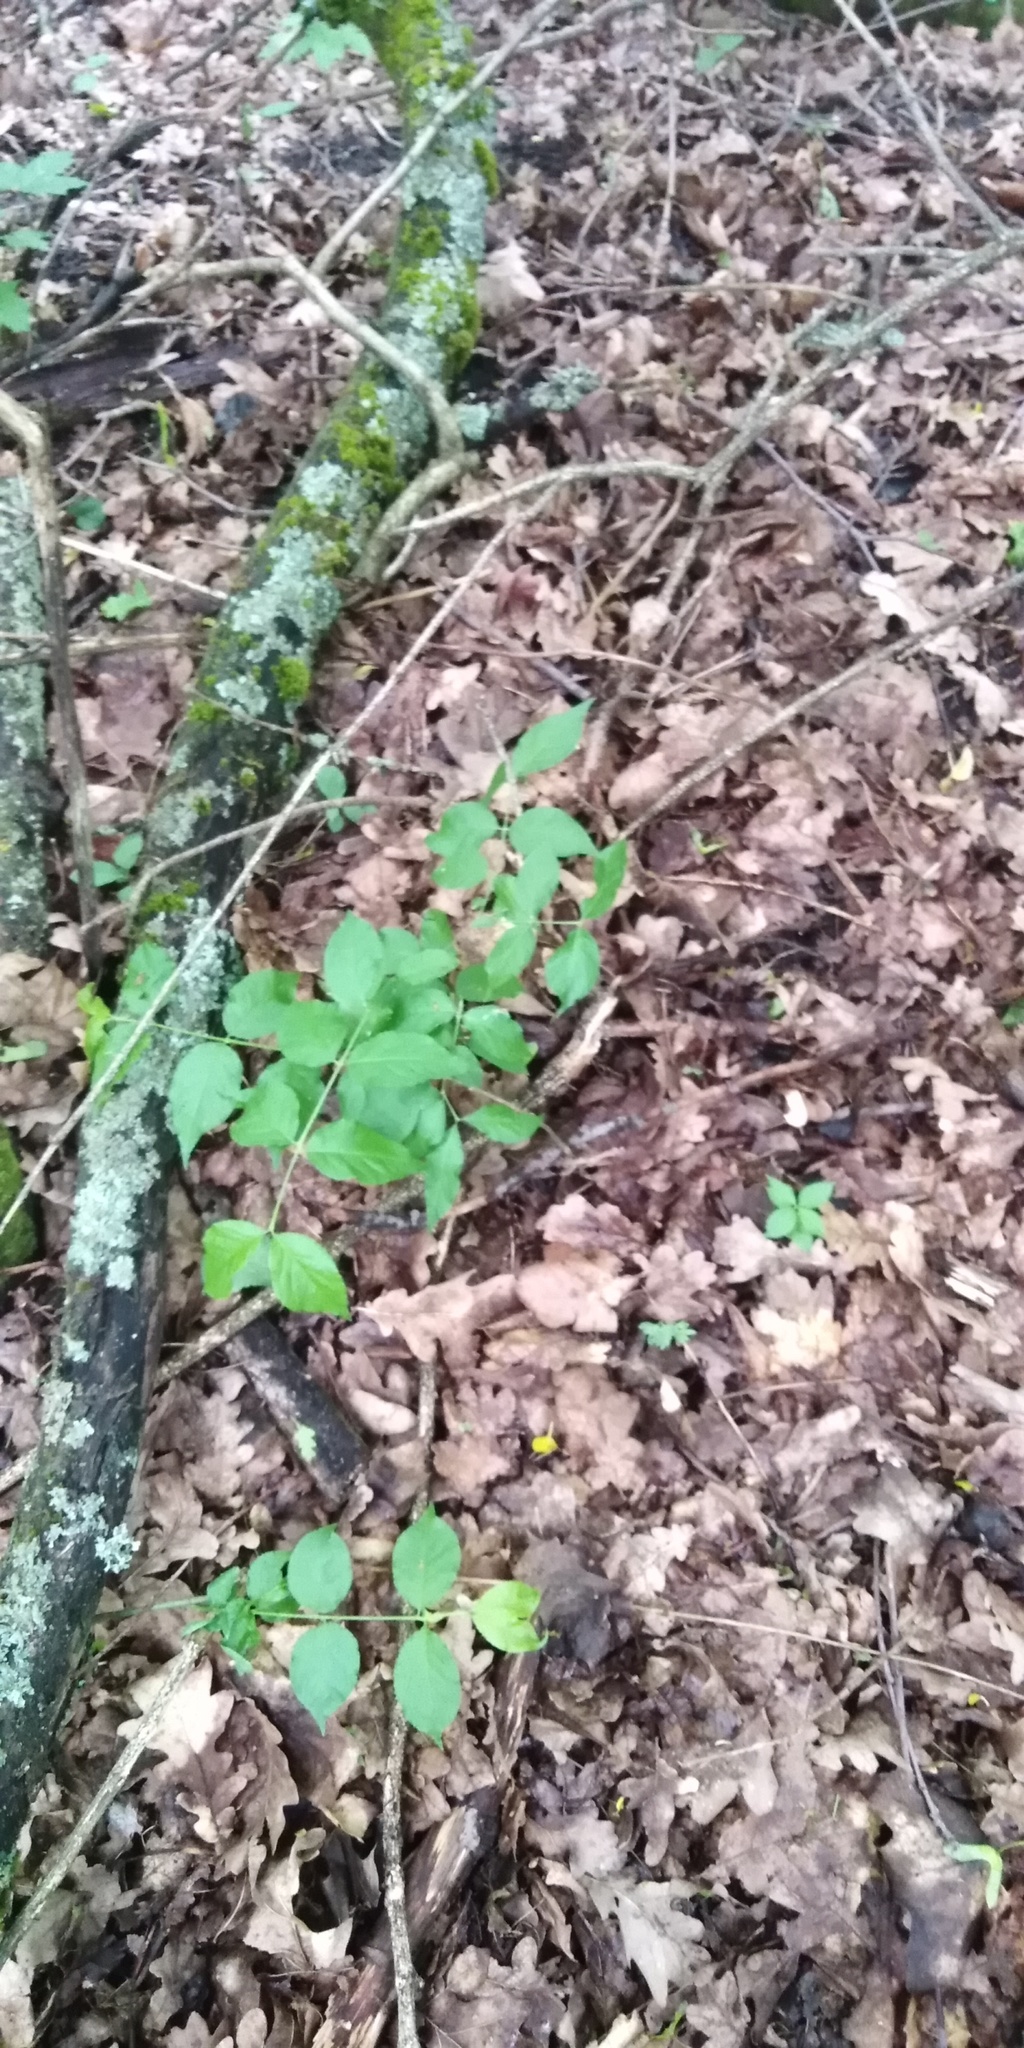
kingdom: Plantae
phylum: Tracheophyta
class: Magnoliopsida
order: Celastrales
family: Celastraceae
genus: Euonymus
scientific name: Euonymus verrucosus
